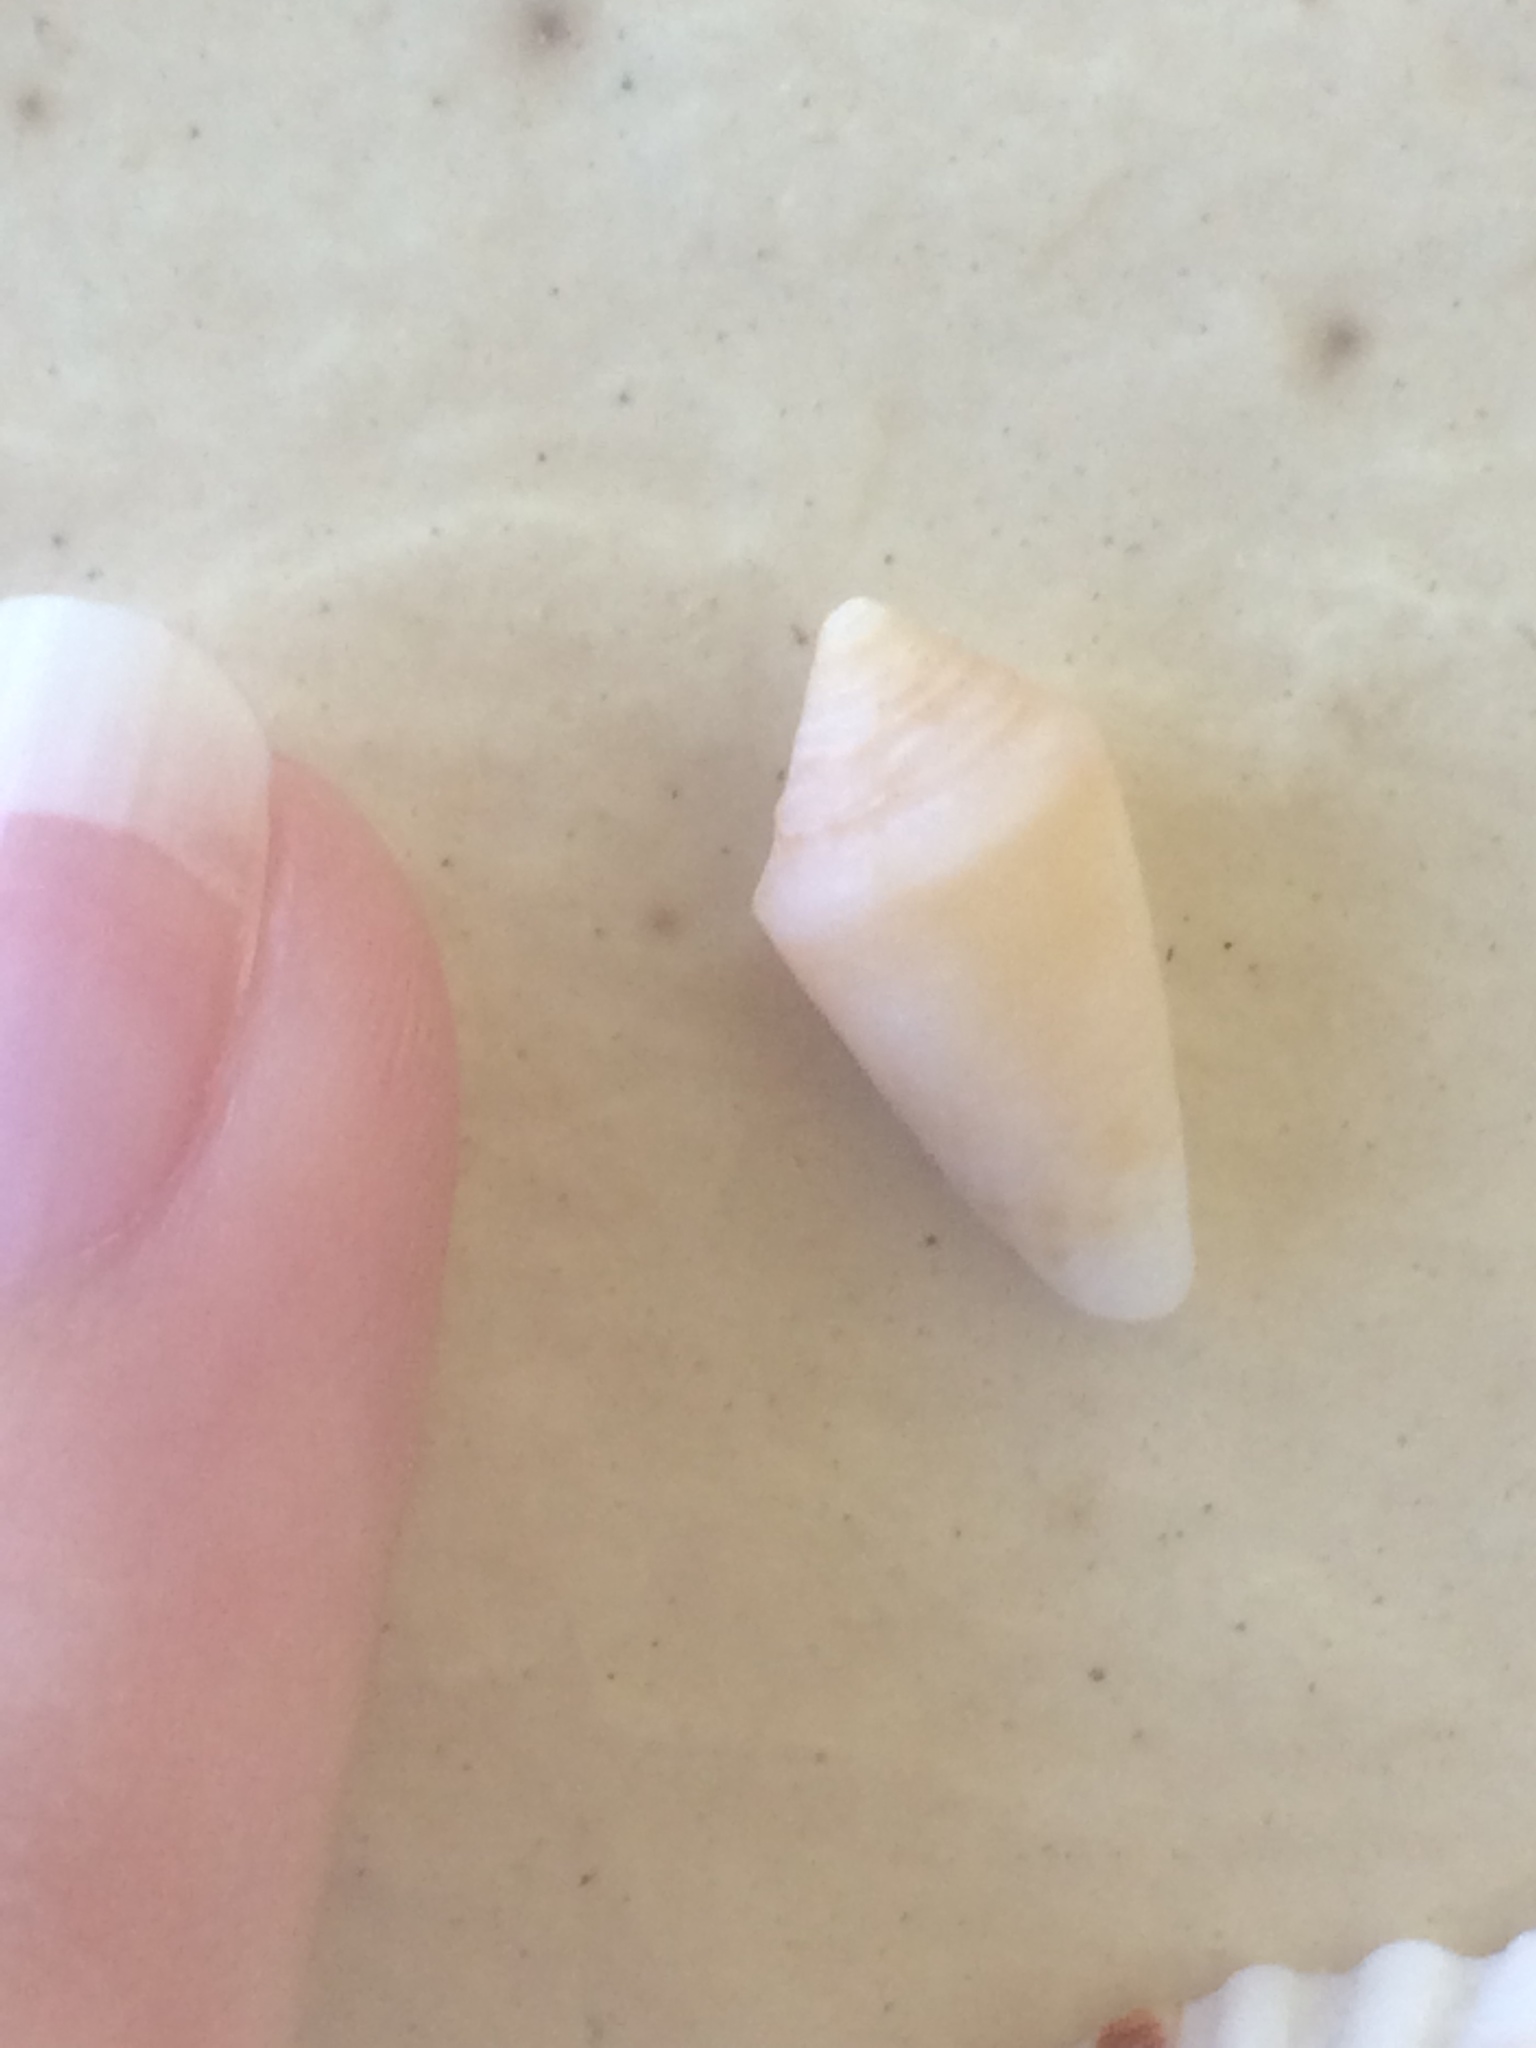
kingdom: Animalia
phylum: Mollusca
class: Gastropoda
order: Neogastropoda
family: Conidae
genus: Conasprella
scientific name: Conasprella stearnsii
